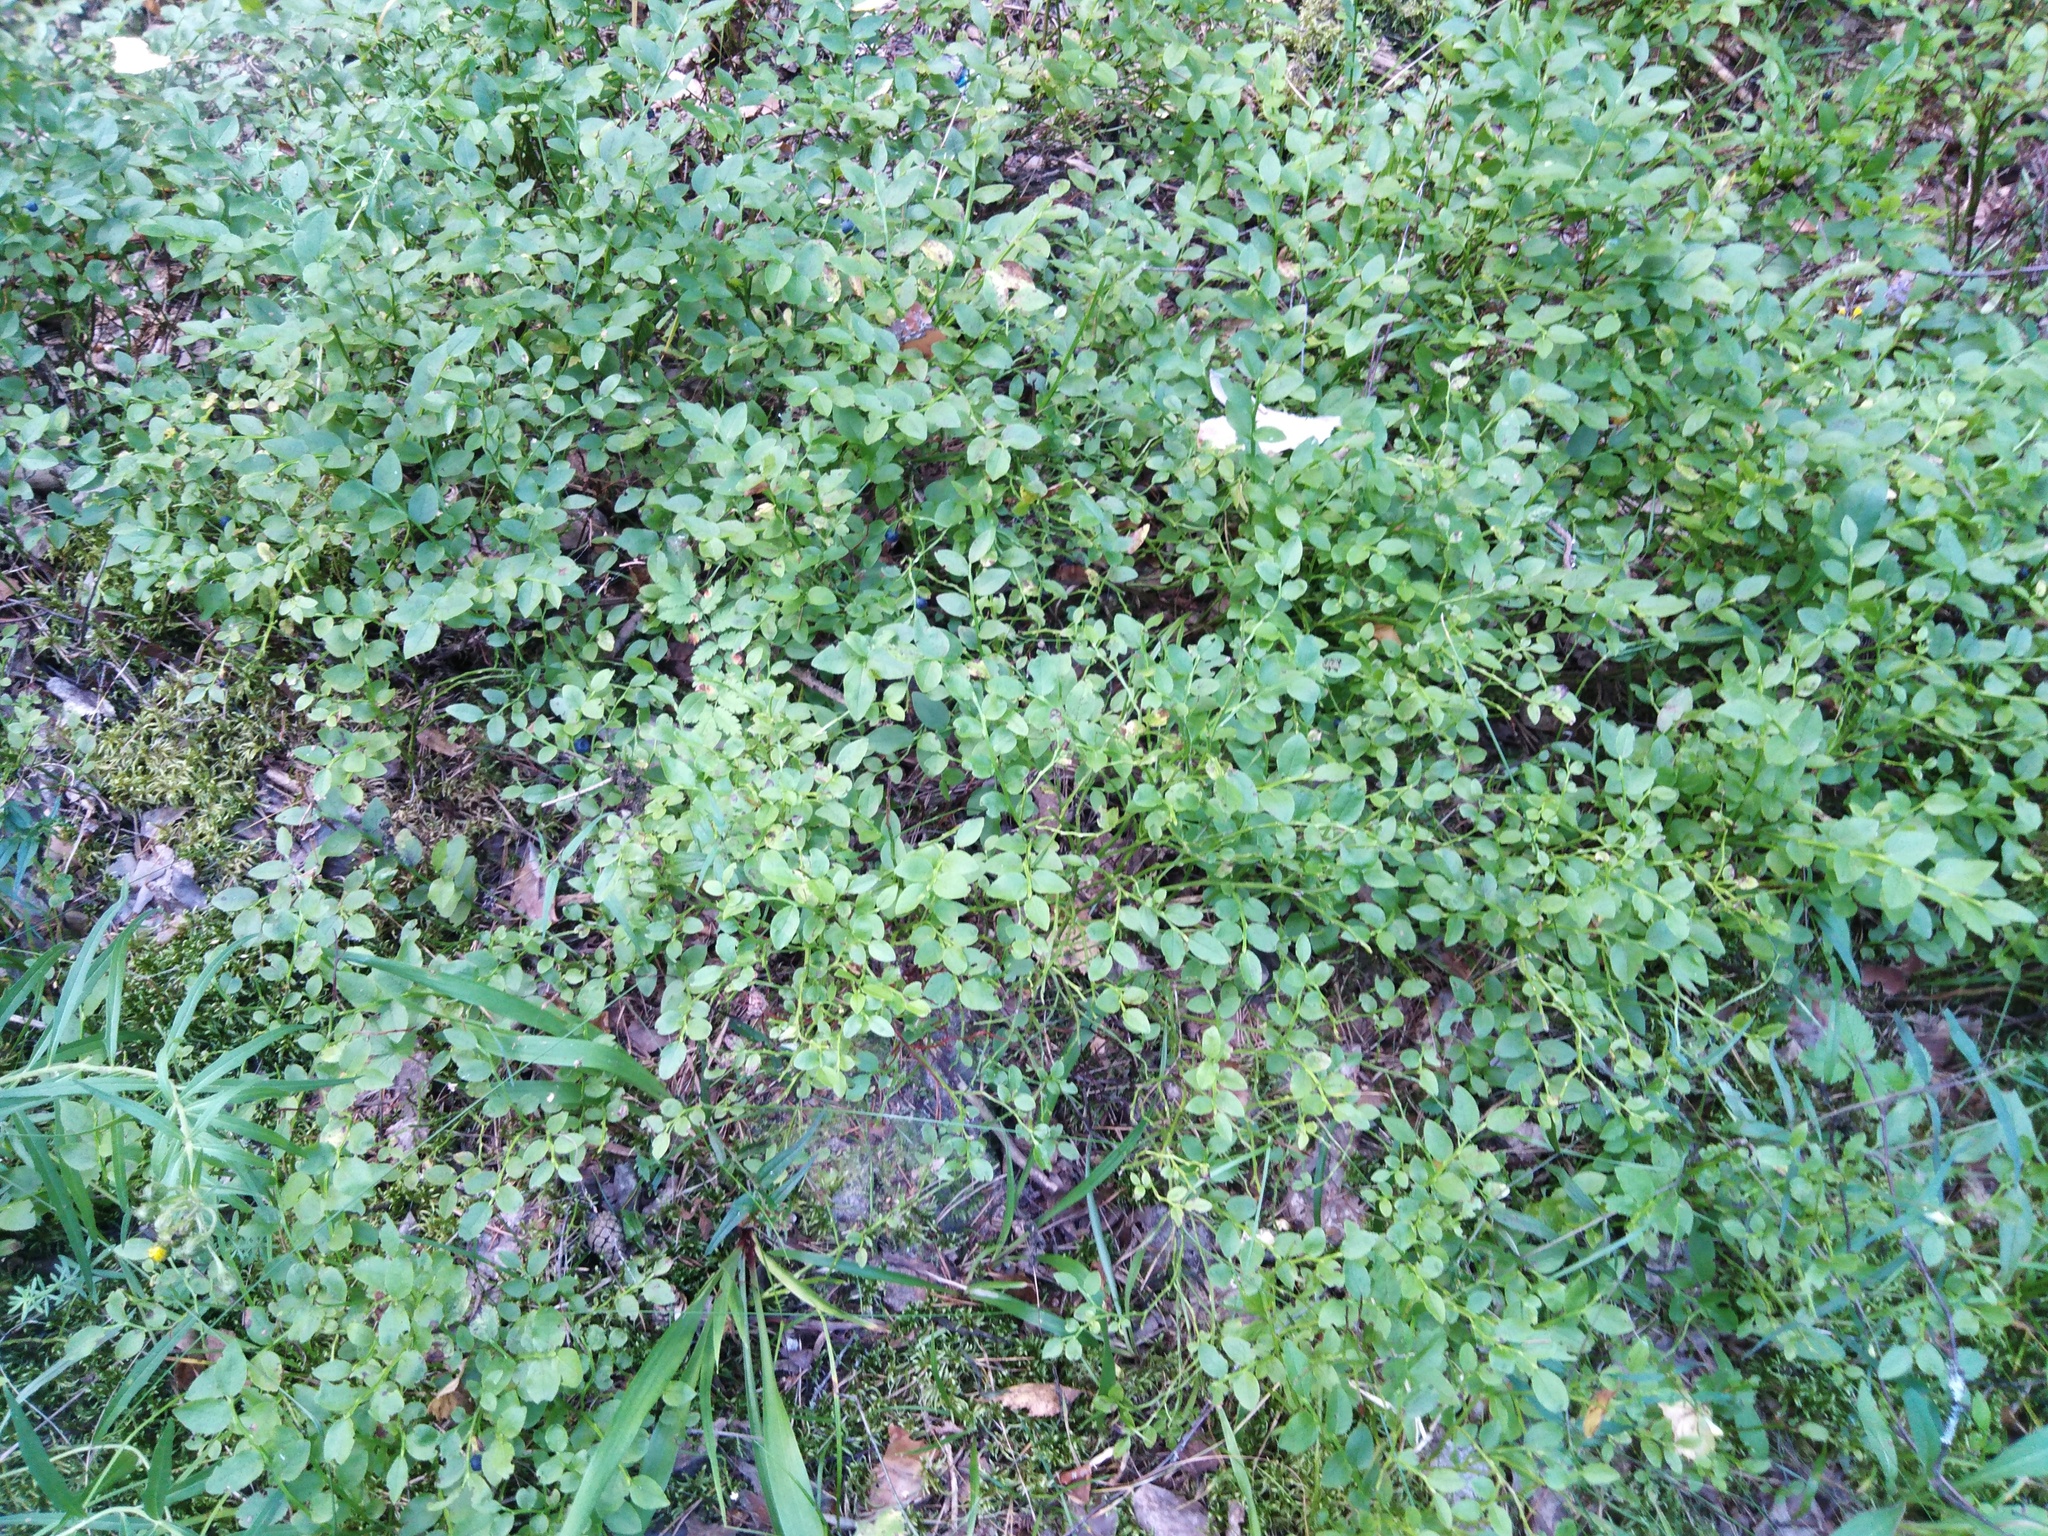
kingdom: Plantae
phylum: Tracheophyta
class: Magnoliopsida
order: Ericales
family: Ericaceae
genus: Vaccinium
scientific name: Vaccinium myrtillus
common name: Bilberry
